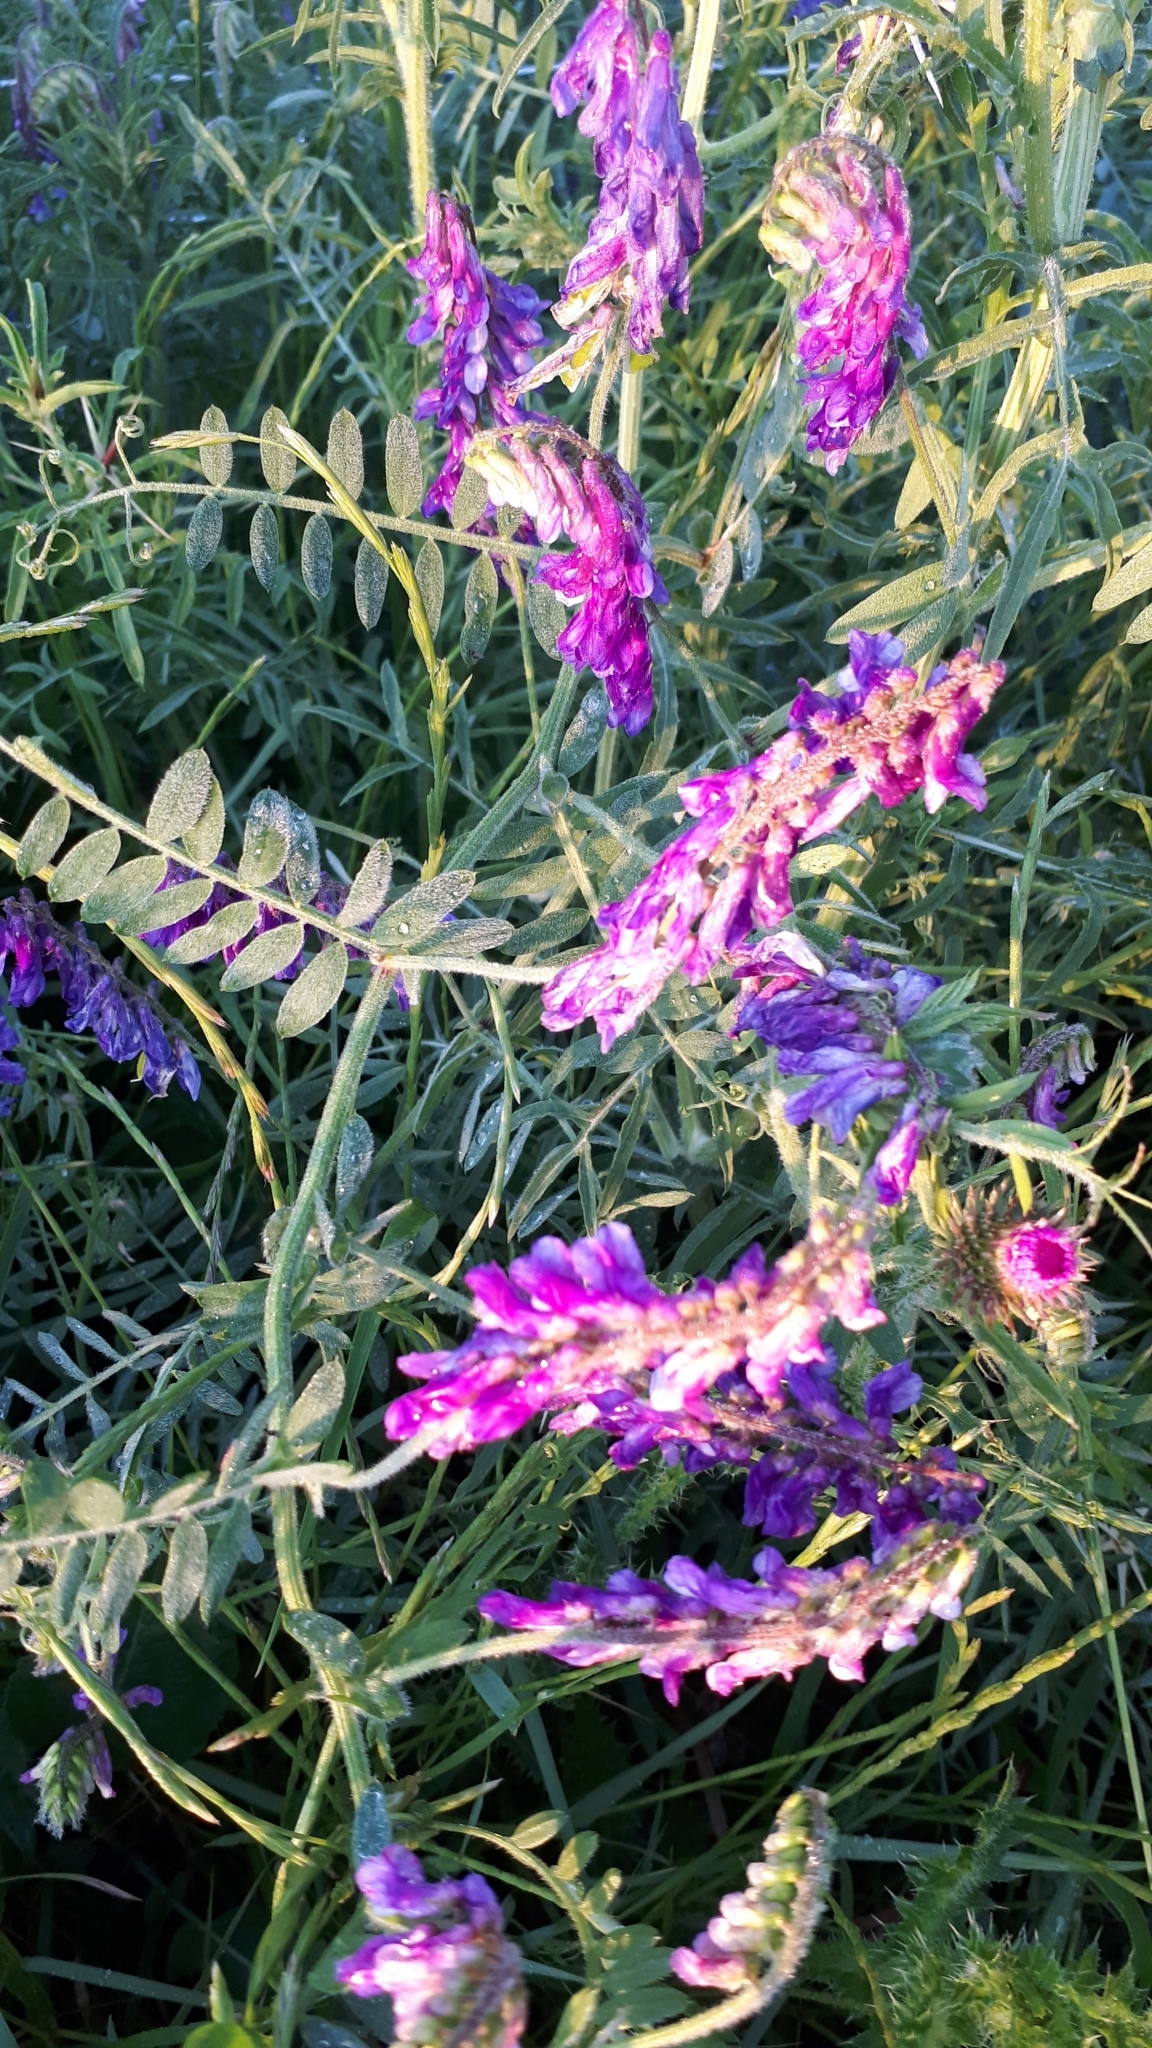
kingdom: Plantae
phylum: Tracheophyta
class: Magnoliopsida
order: Fabales
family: Fabaceae
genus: Vicia
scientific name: Vicia villosa
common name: Fodder vetch
